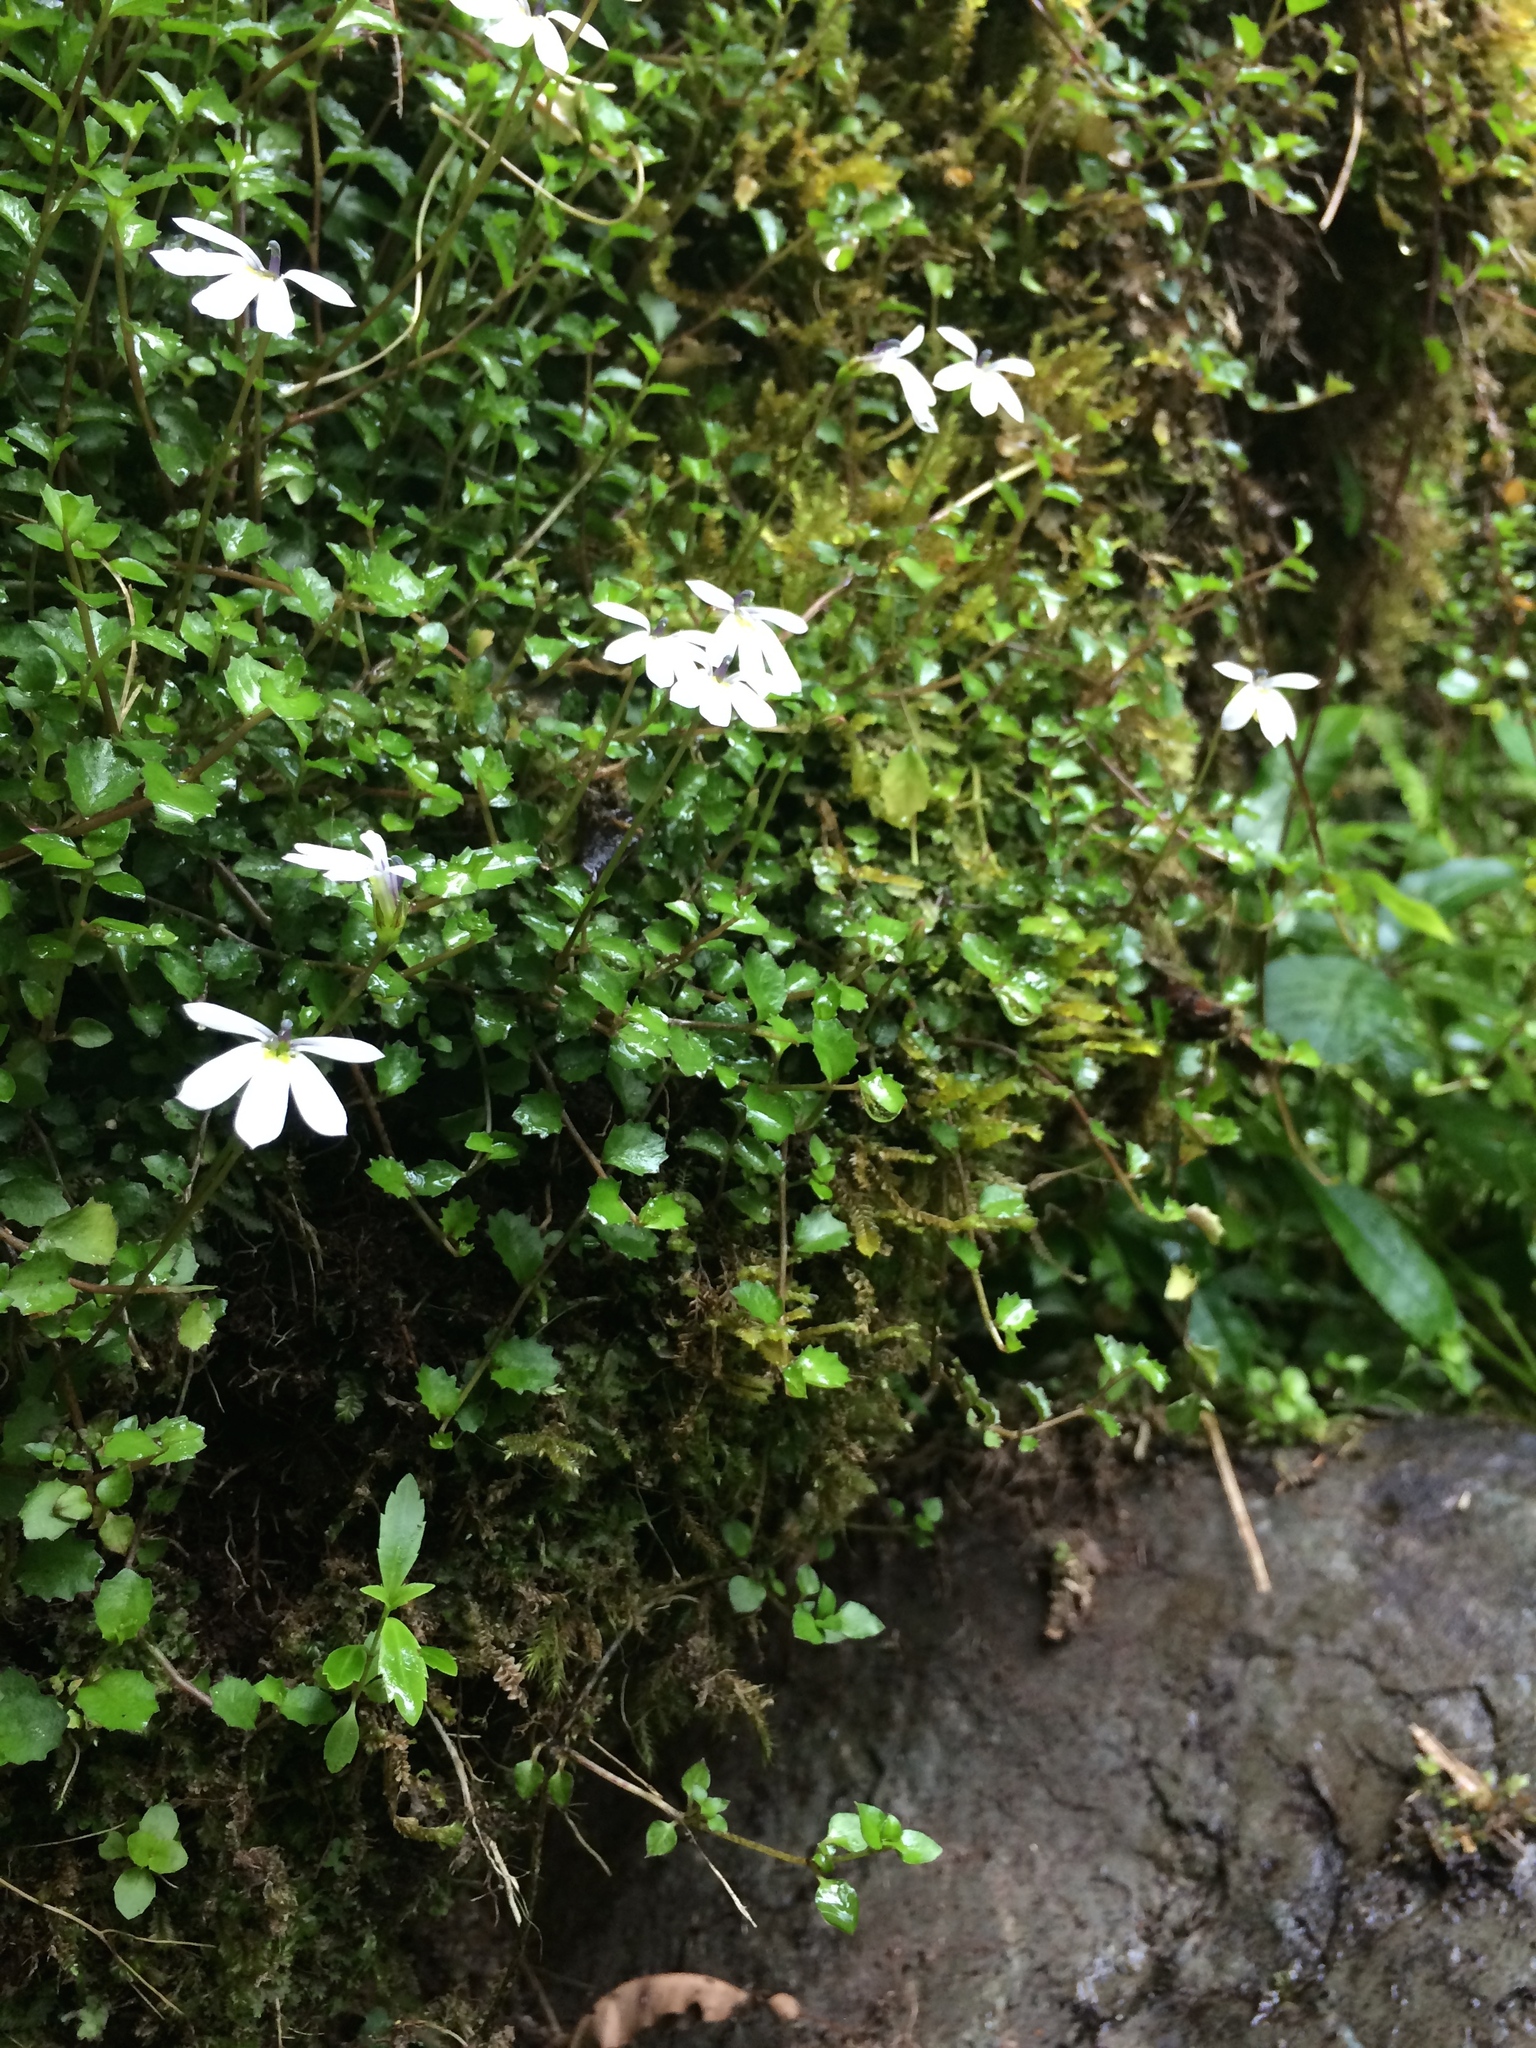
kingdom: Plantae
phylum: Tracheophyta
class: Magnoliopsida
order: Asterales
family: Campanulaceae
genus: Lobelia
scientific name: Lobelia angulata
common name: Lawn lobelia
